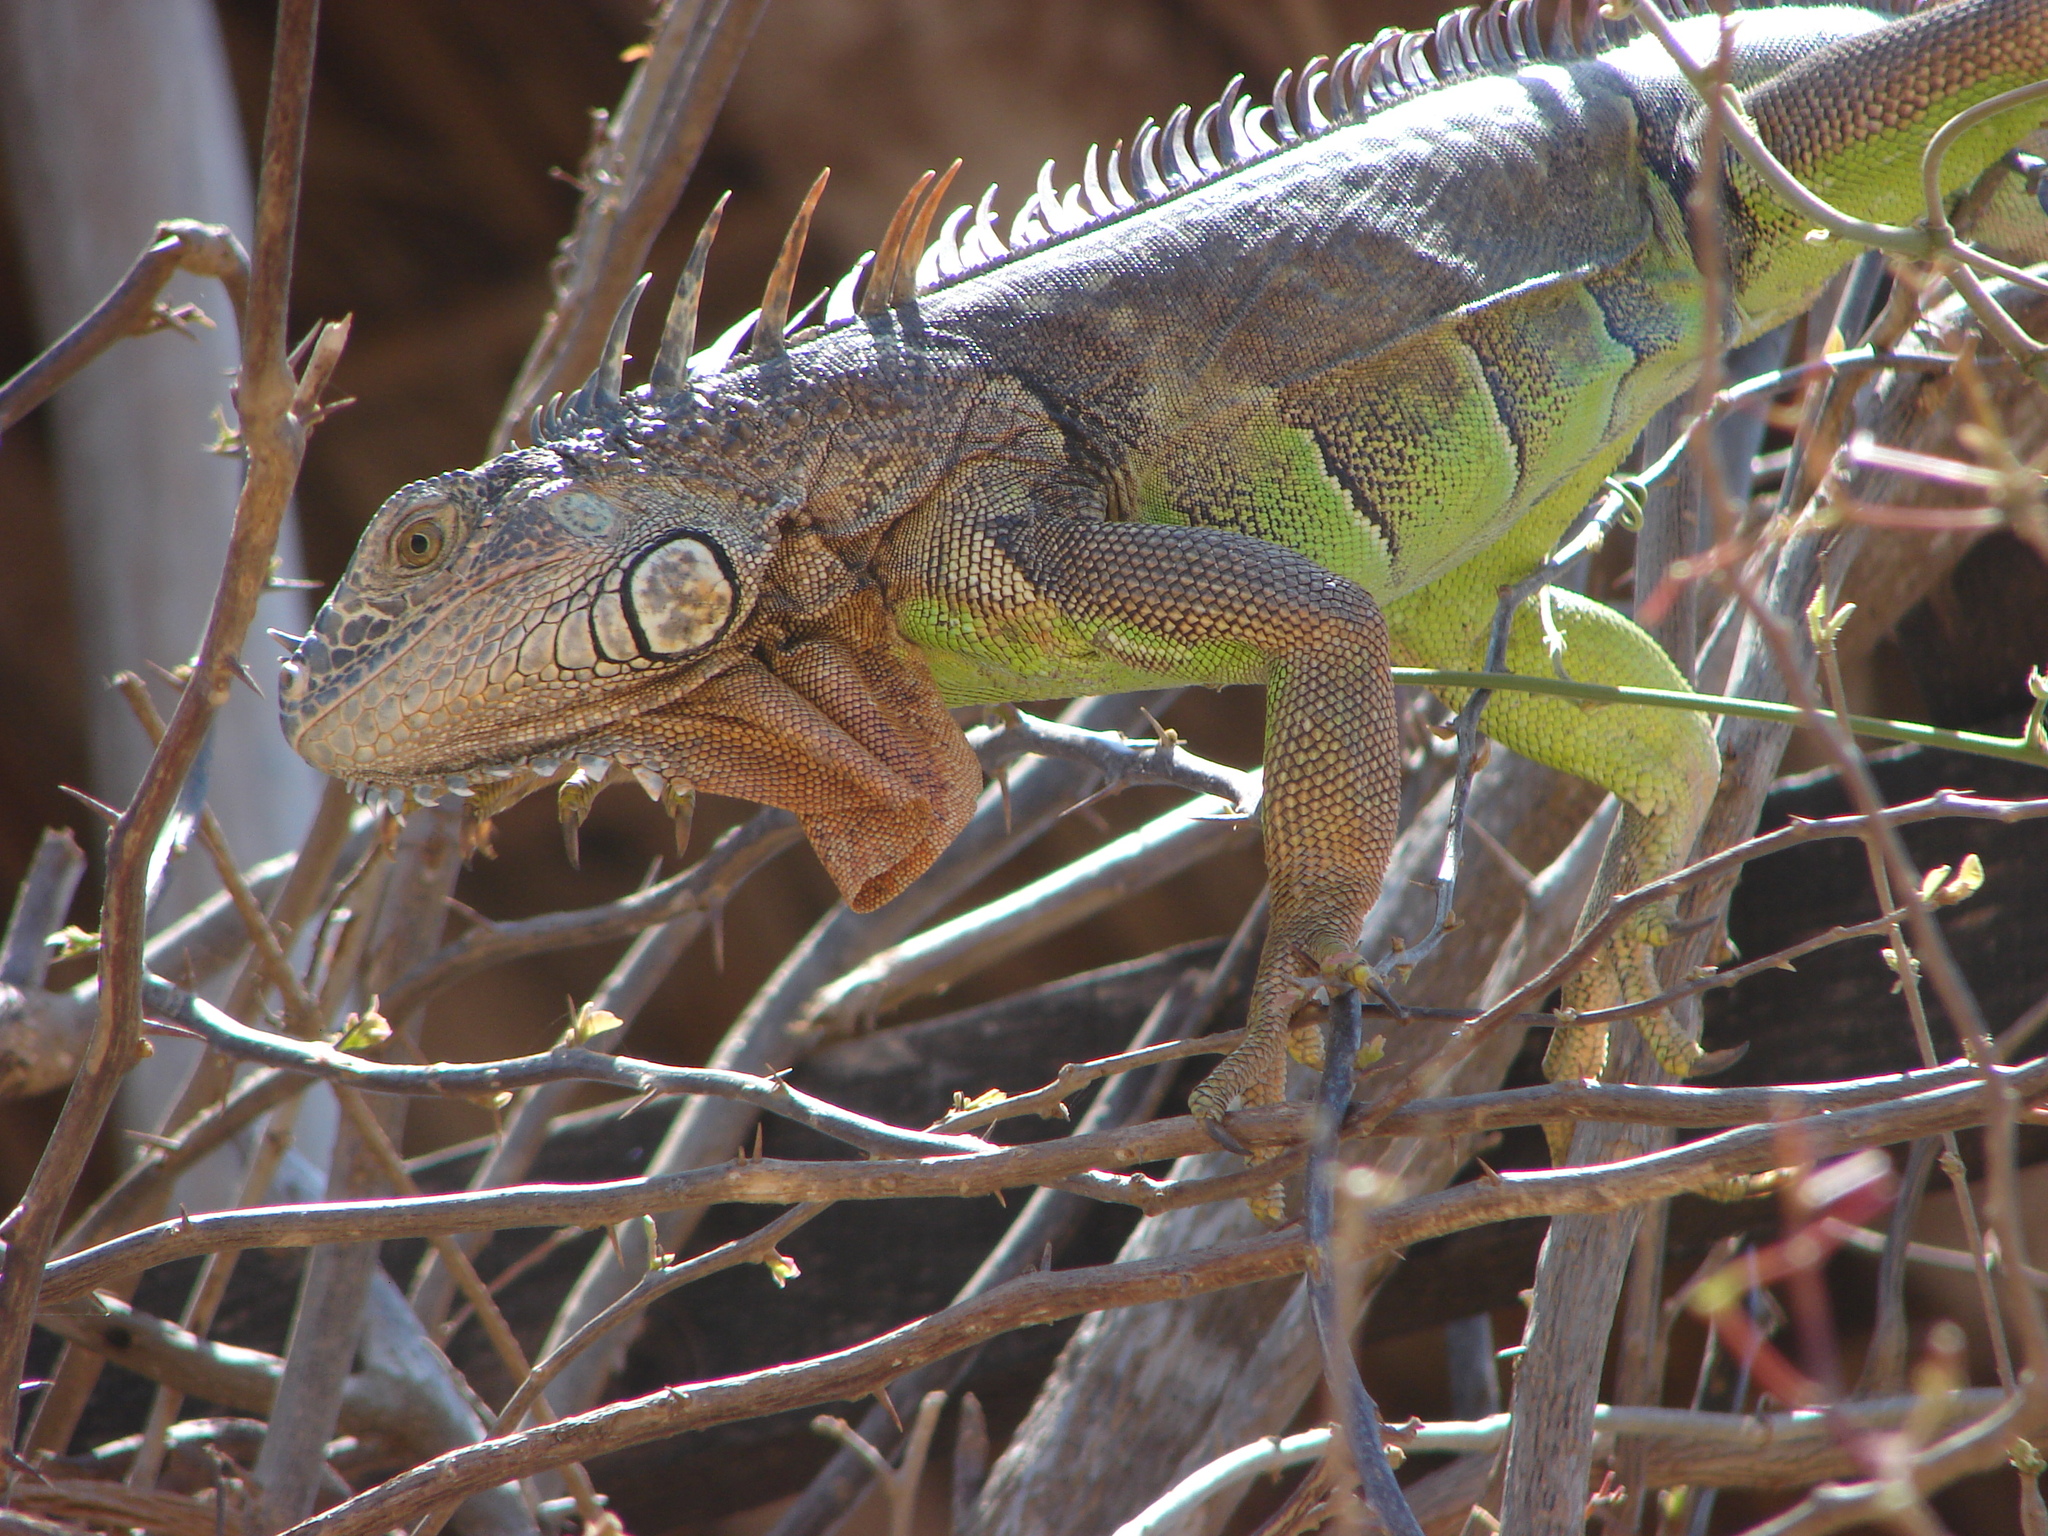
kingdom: Animalia
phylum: Chordata
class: Squamata
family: Iguanidae
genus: Iguana
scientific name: Iguana iguana
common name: Green iguana
